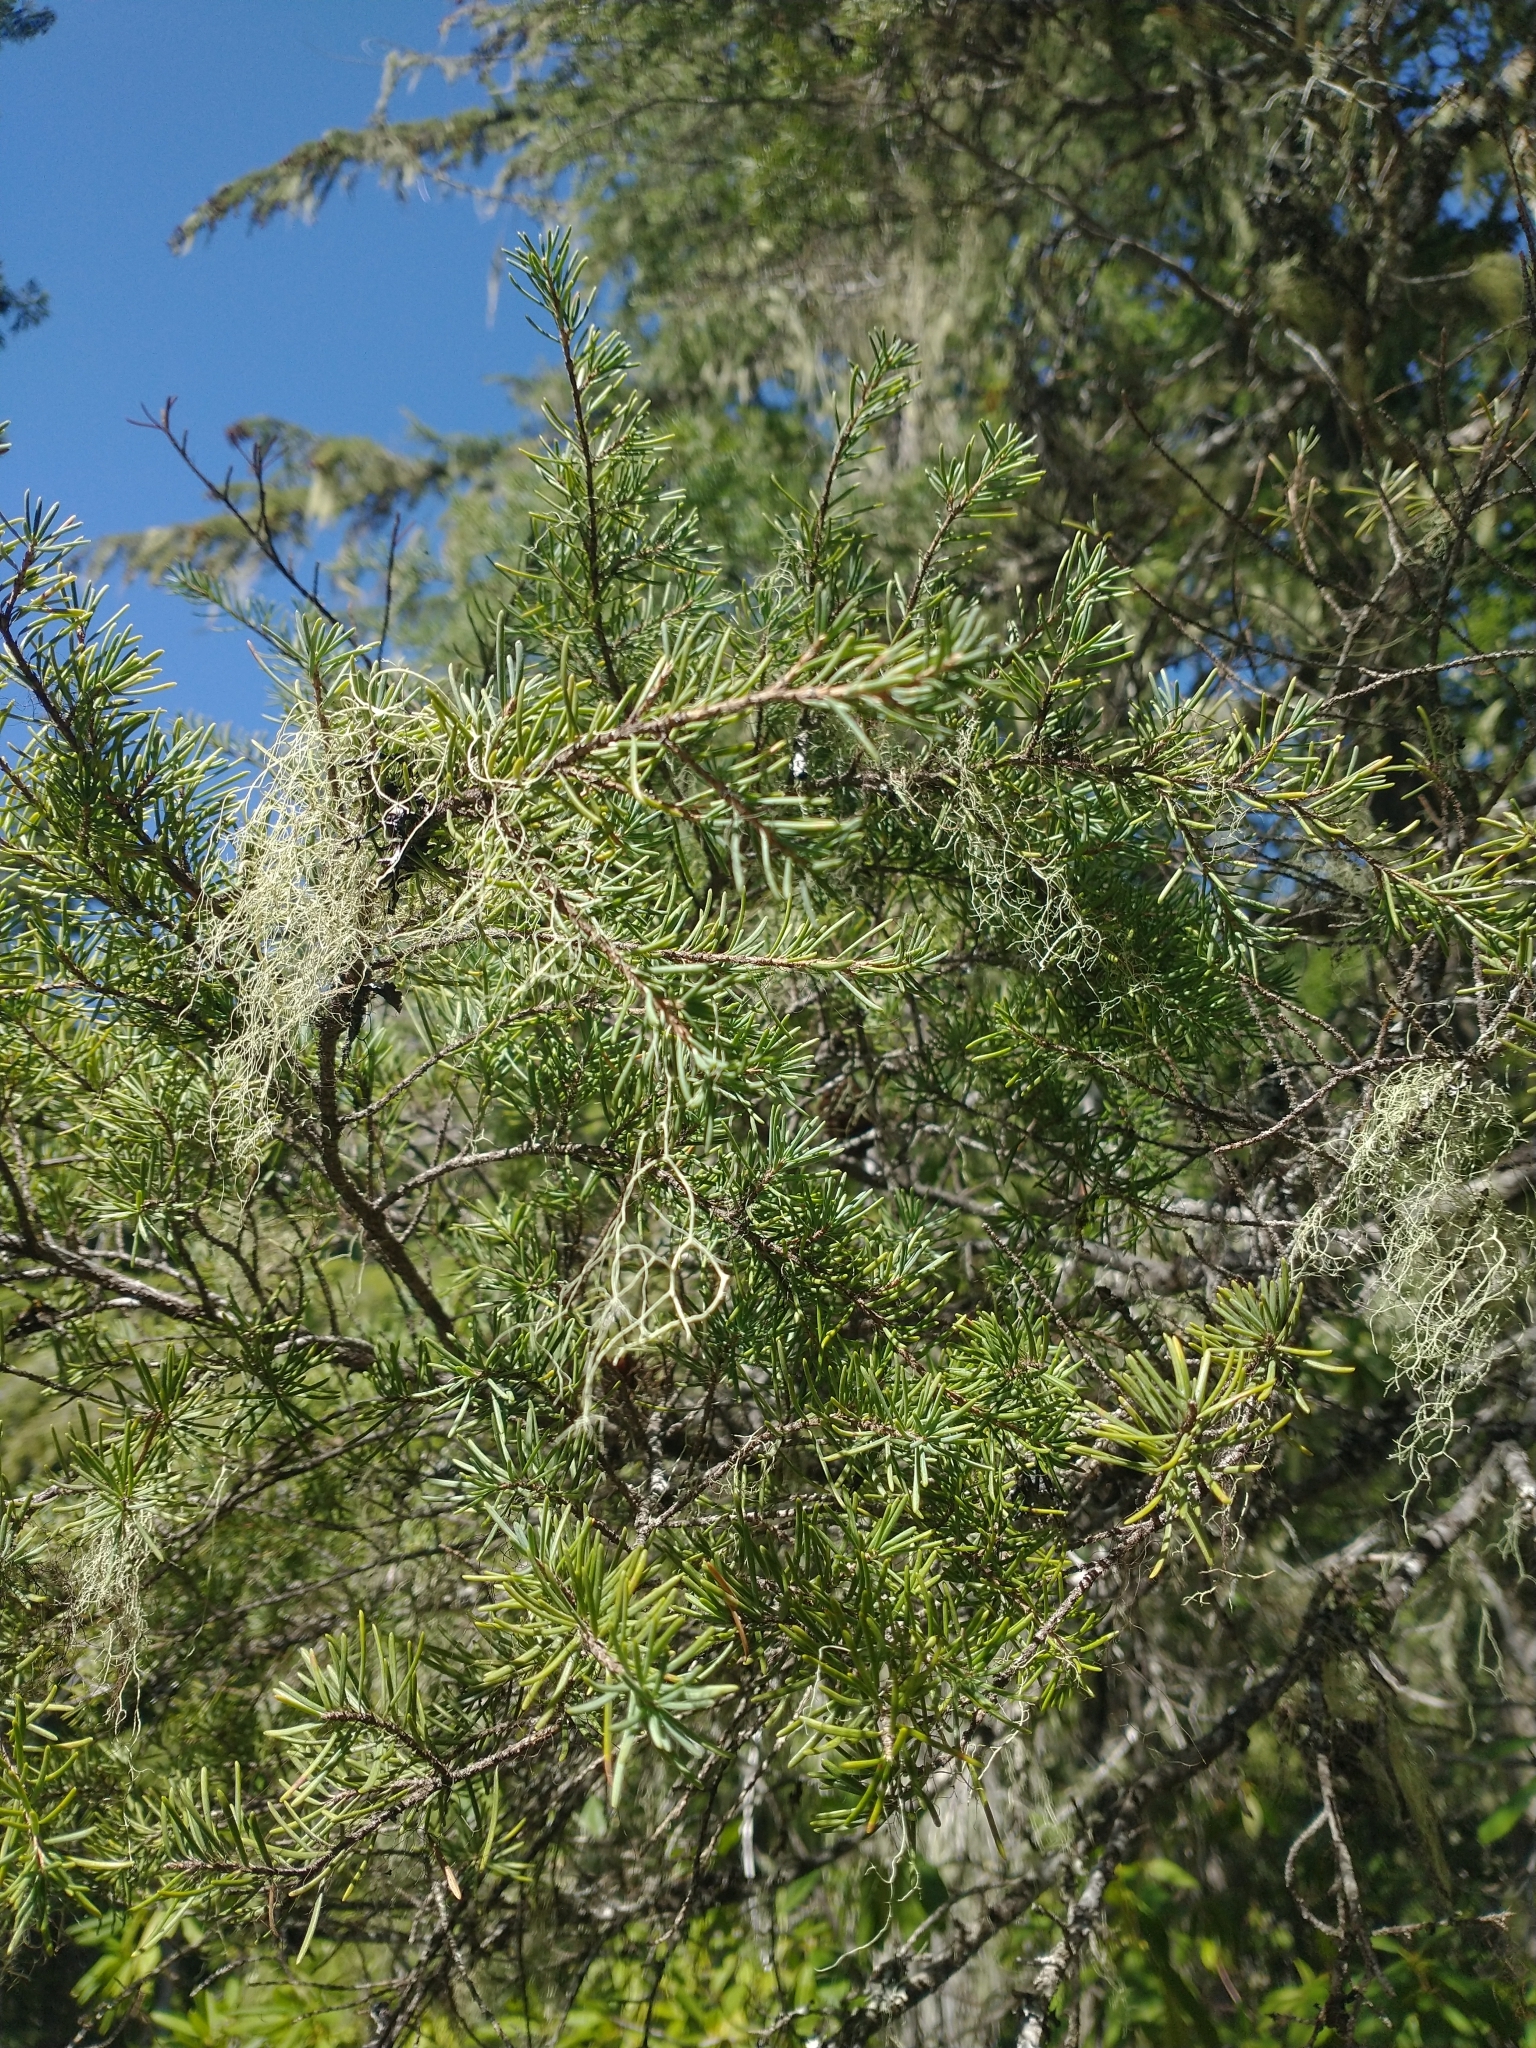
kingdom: Plantae
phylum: Tracheophyta
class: Pinopsida
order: Pinales
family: Pinaceae
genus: Tsuga
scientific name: Tsuga mertensiana
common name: Mountain hemlock
